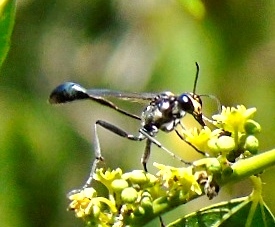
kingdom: Animalia
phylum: Arthropoda
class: Insecta
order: Hymenoptera
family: Sphecidae
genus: Eremnophila
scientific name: Eremnophila
